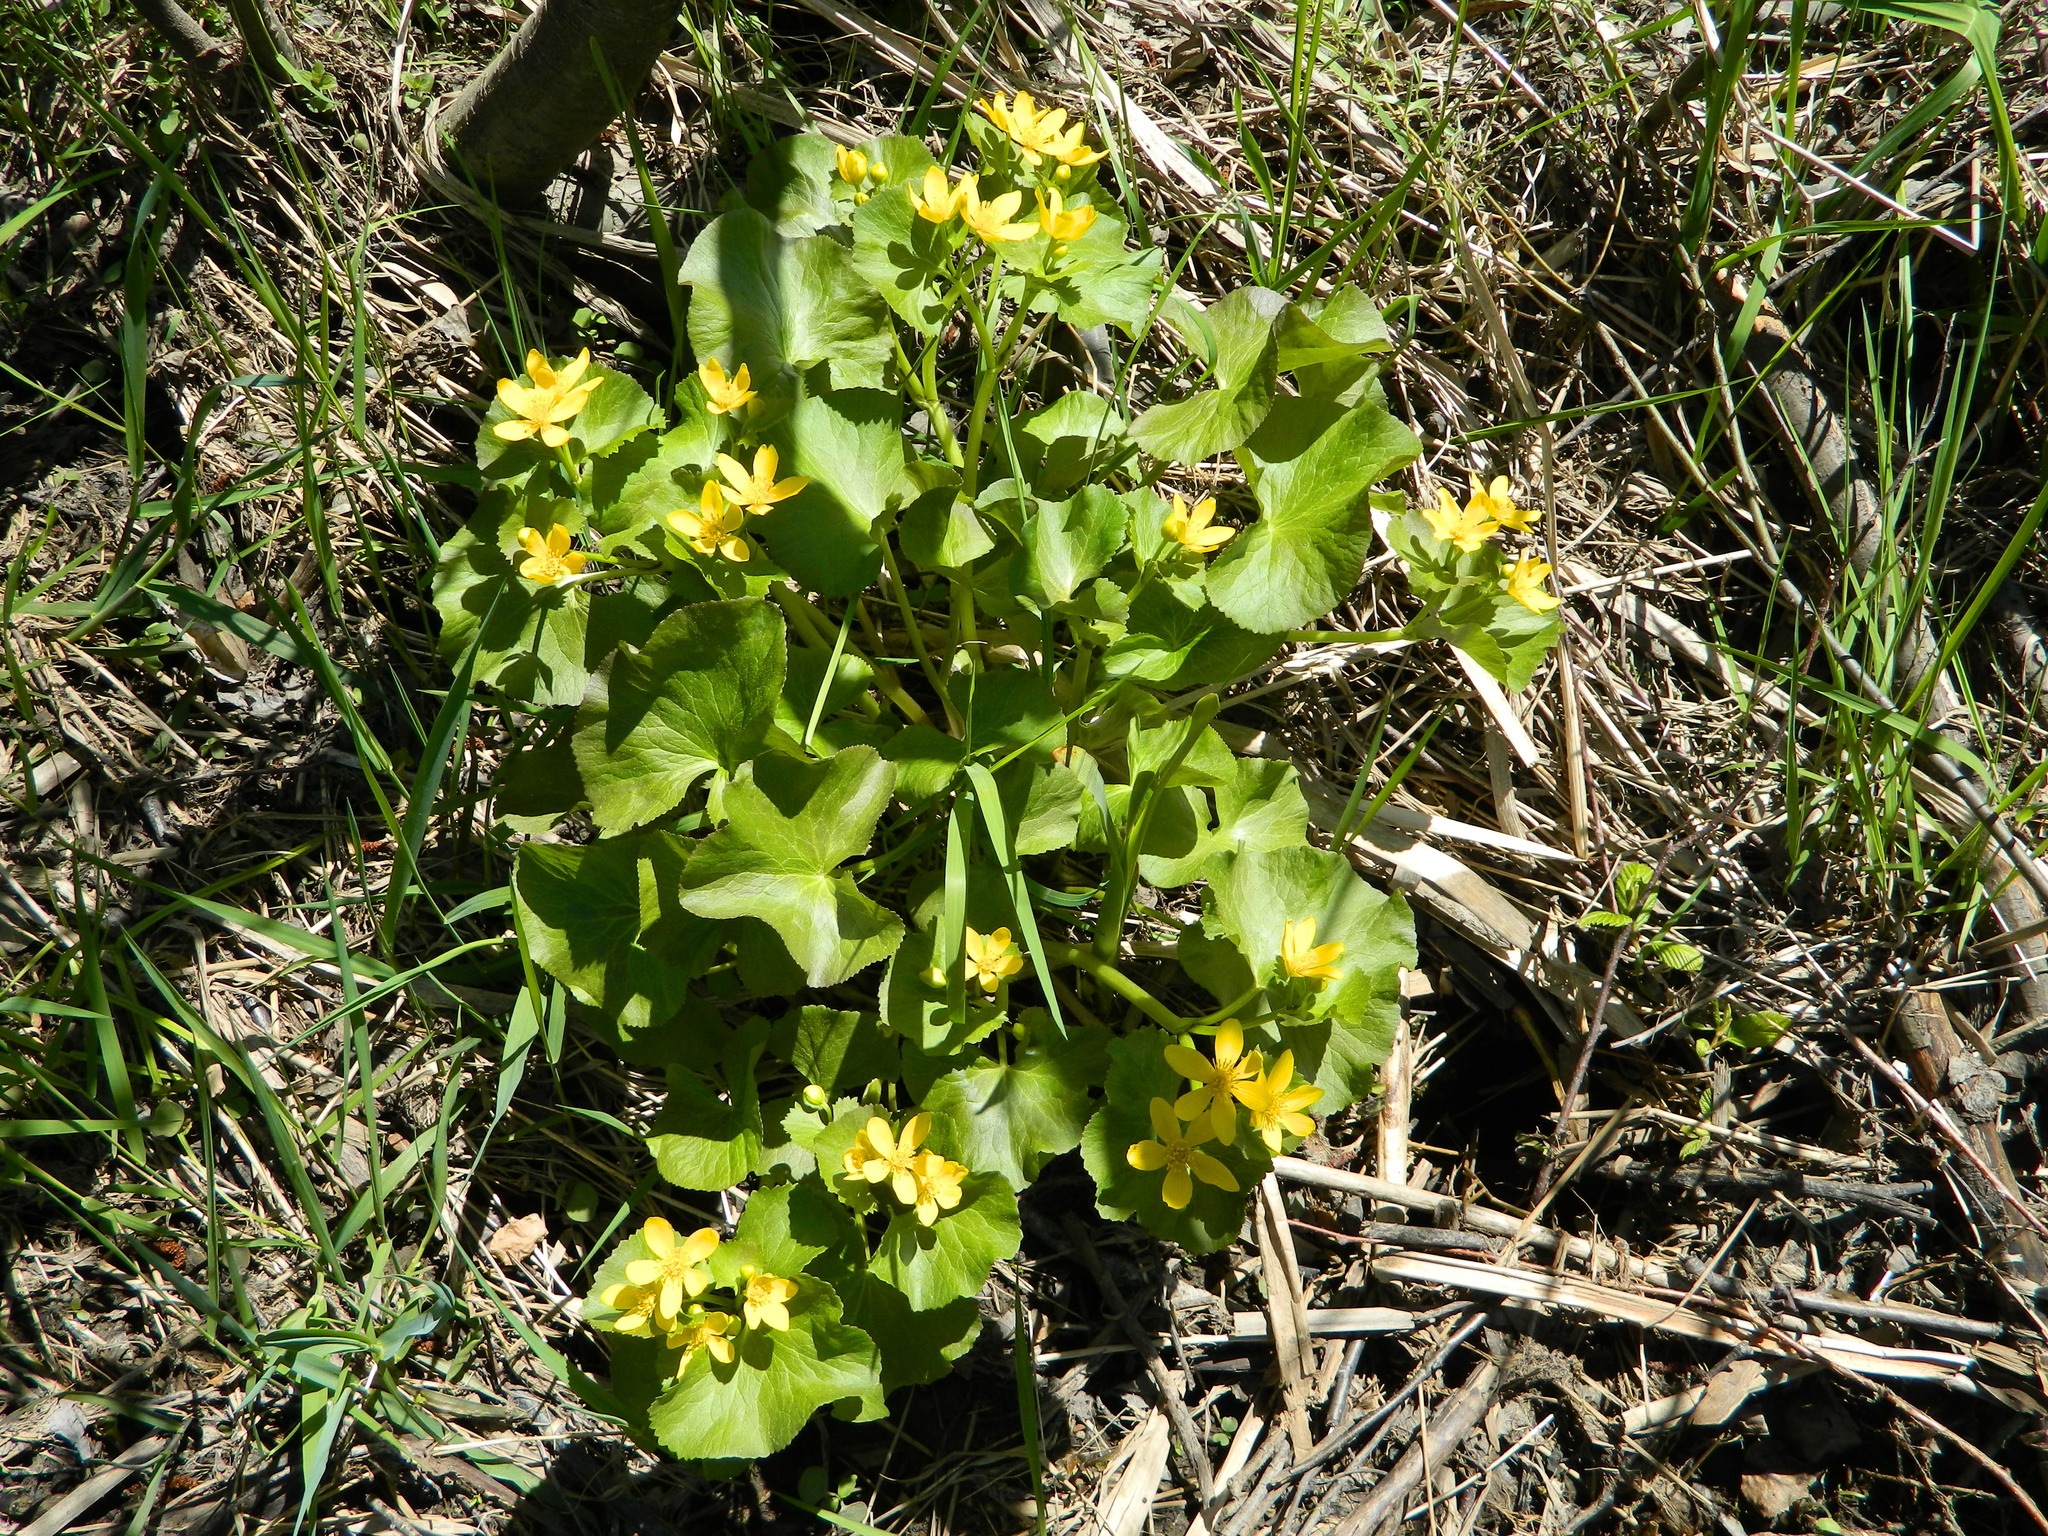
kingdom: Plantae
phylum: Tracheophyta
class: Magnoliopsida
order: Ranunculales
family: Ranunculaceae
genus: Caltha
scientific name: Caltha palustris
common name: Marsh marigold
